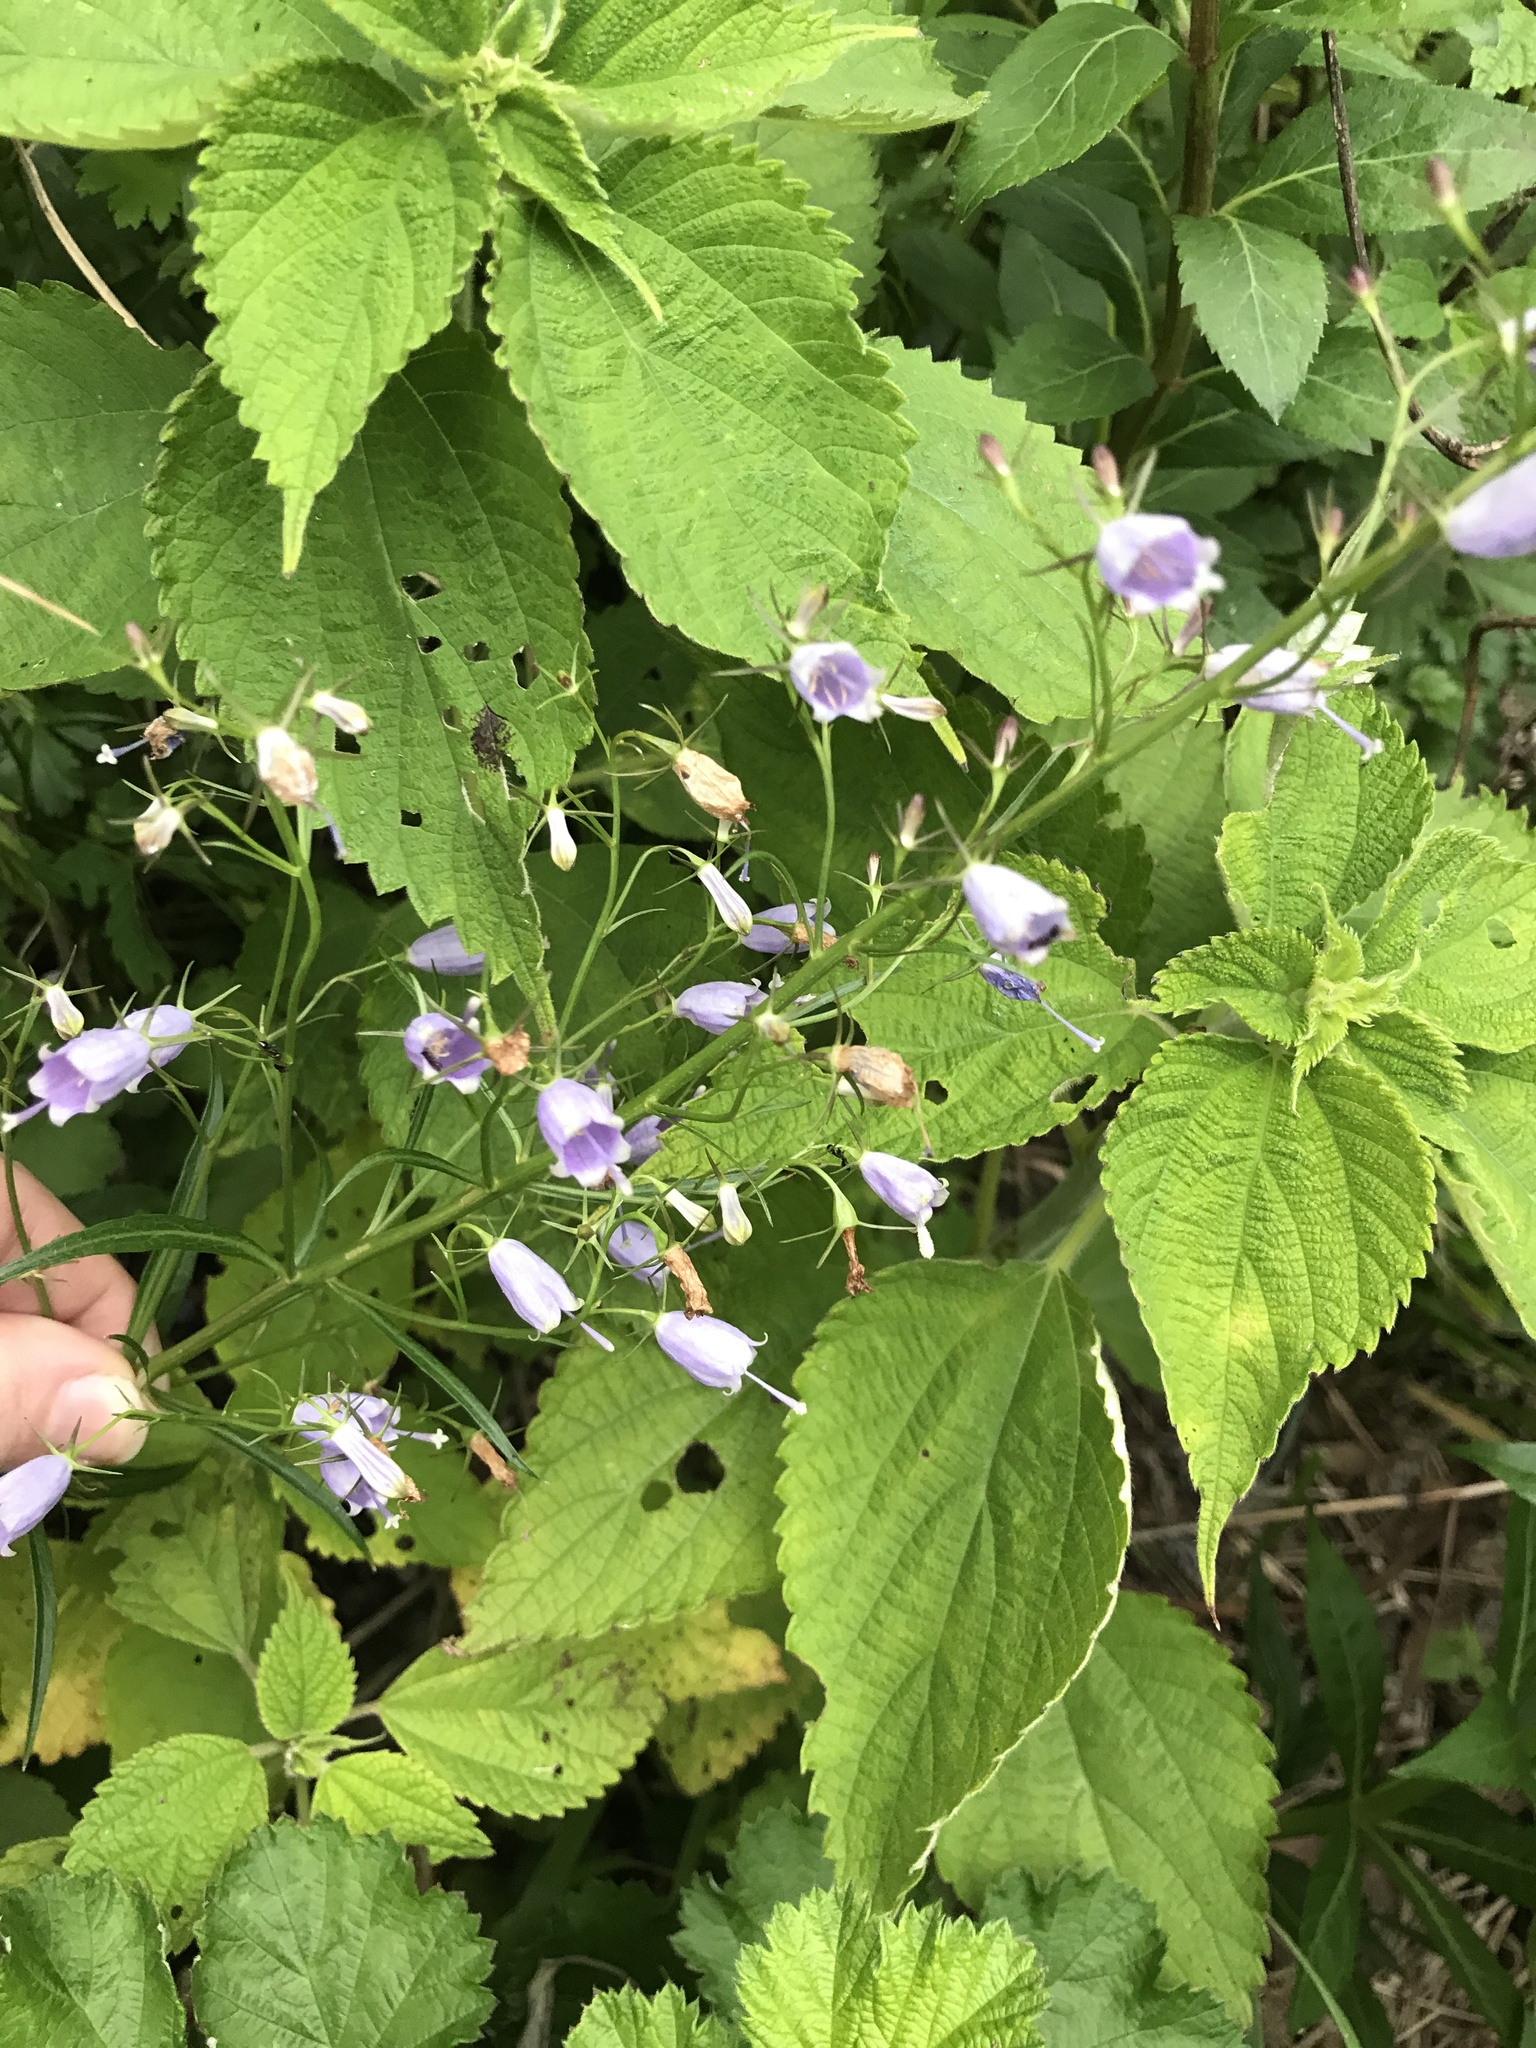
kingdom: Plantae
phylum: Tracheophyta
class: Magnoliopsida
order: Asterales
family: Campanulaceae
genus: Adenophora
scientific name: Adenophora triphylla
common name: Giant-bellflower
